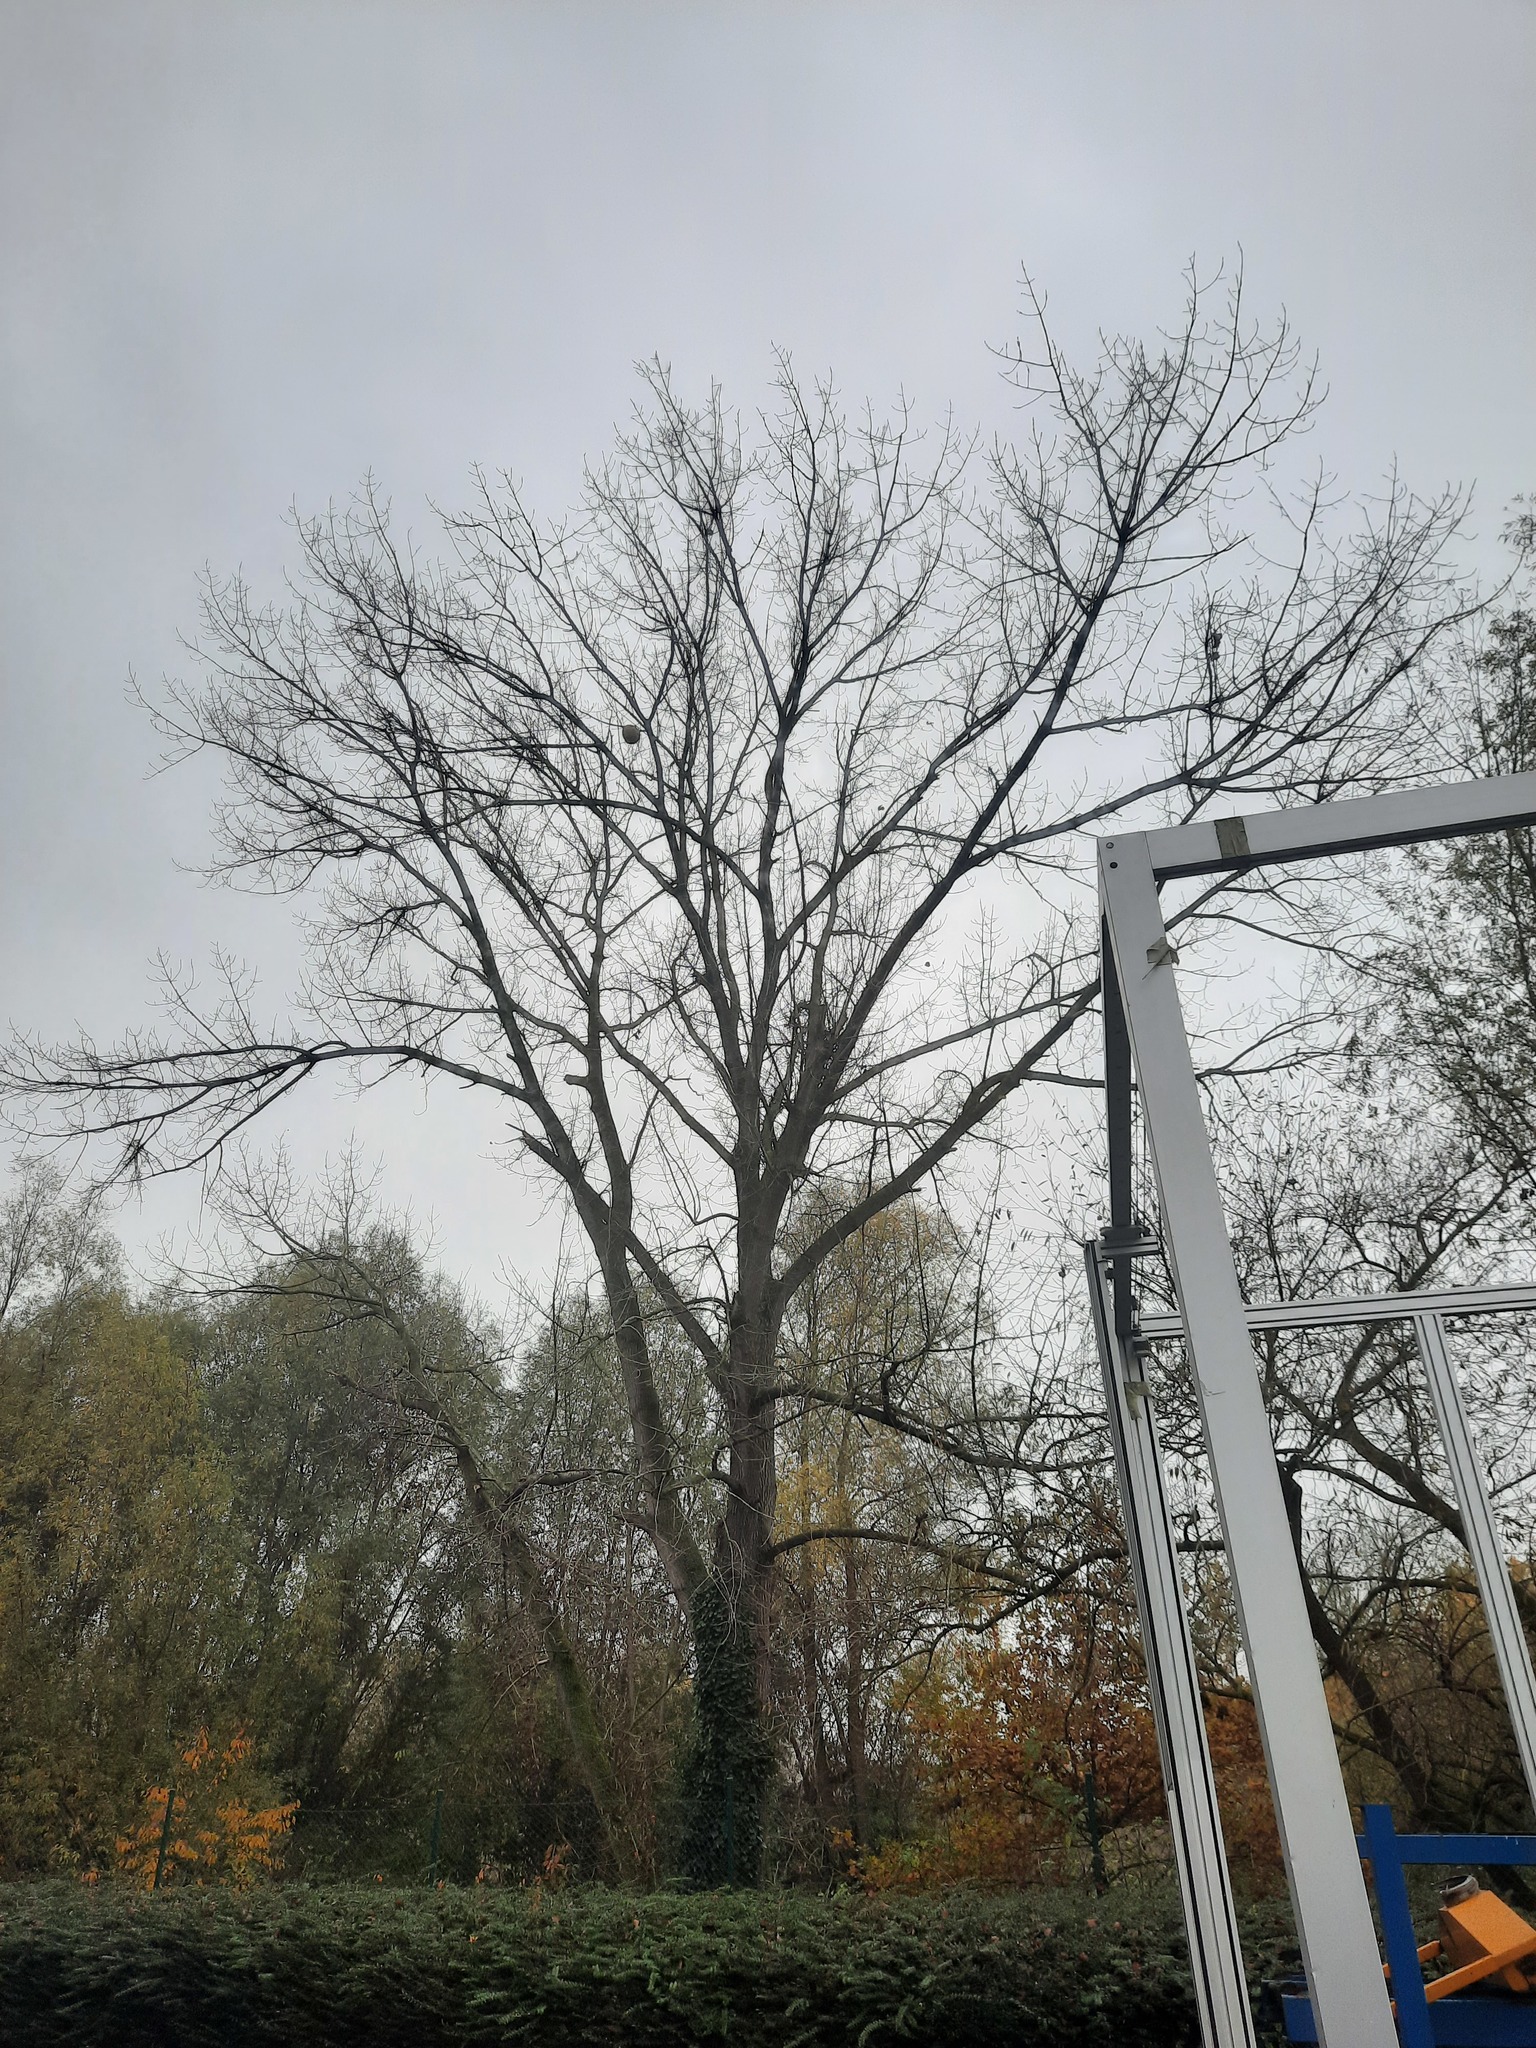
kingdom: Animalia
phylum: Arthropoda
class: Insecta
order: Hymenoptera
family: Vespidae
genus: Vespa
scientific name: Vespa velutina
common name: Asian hornet
